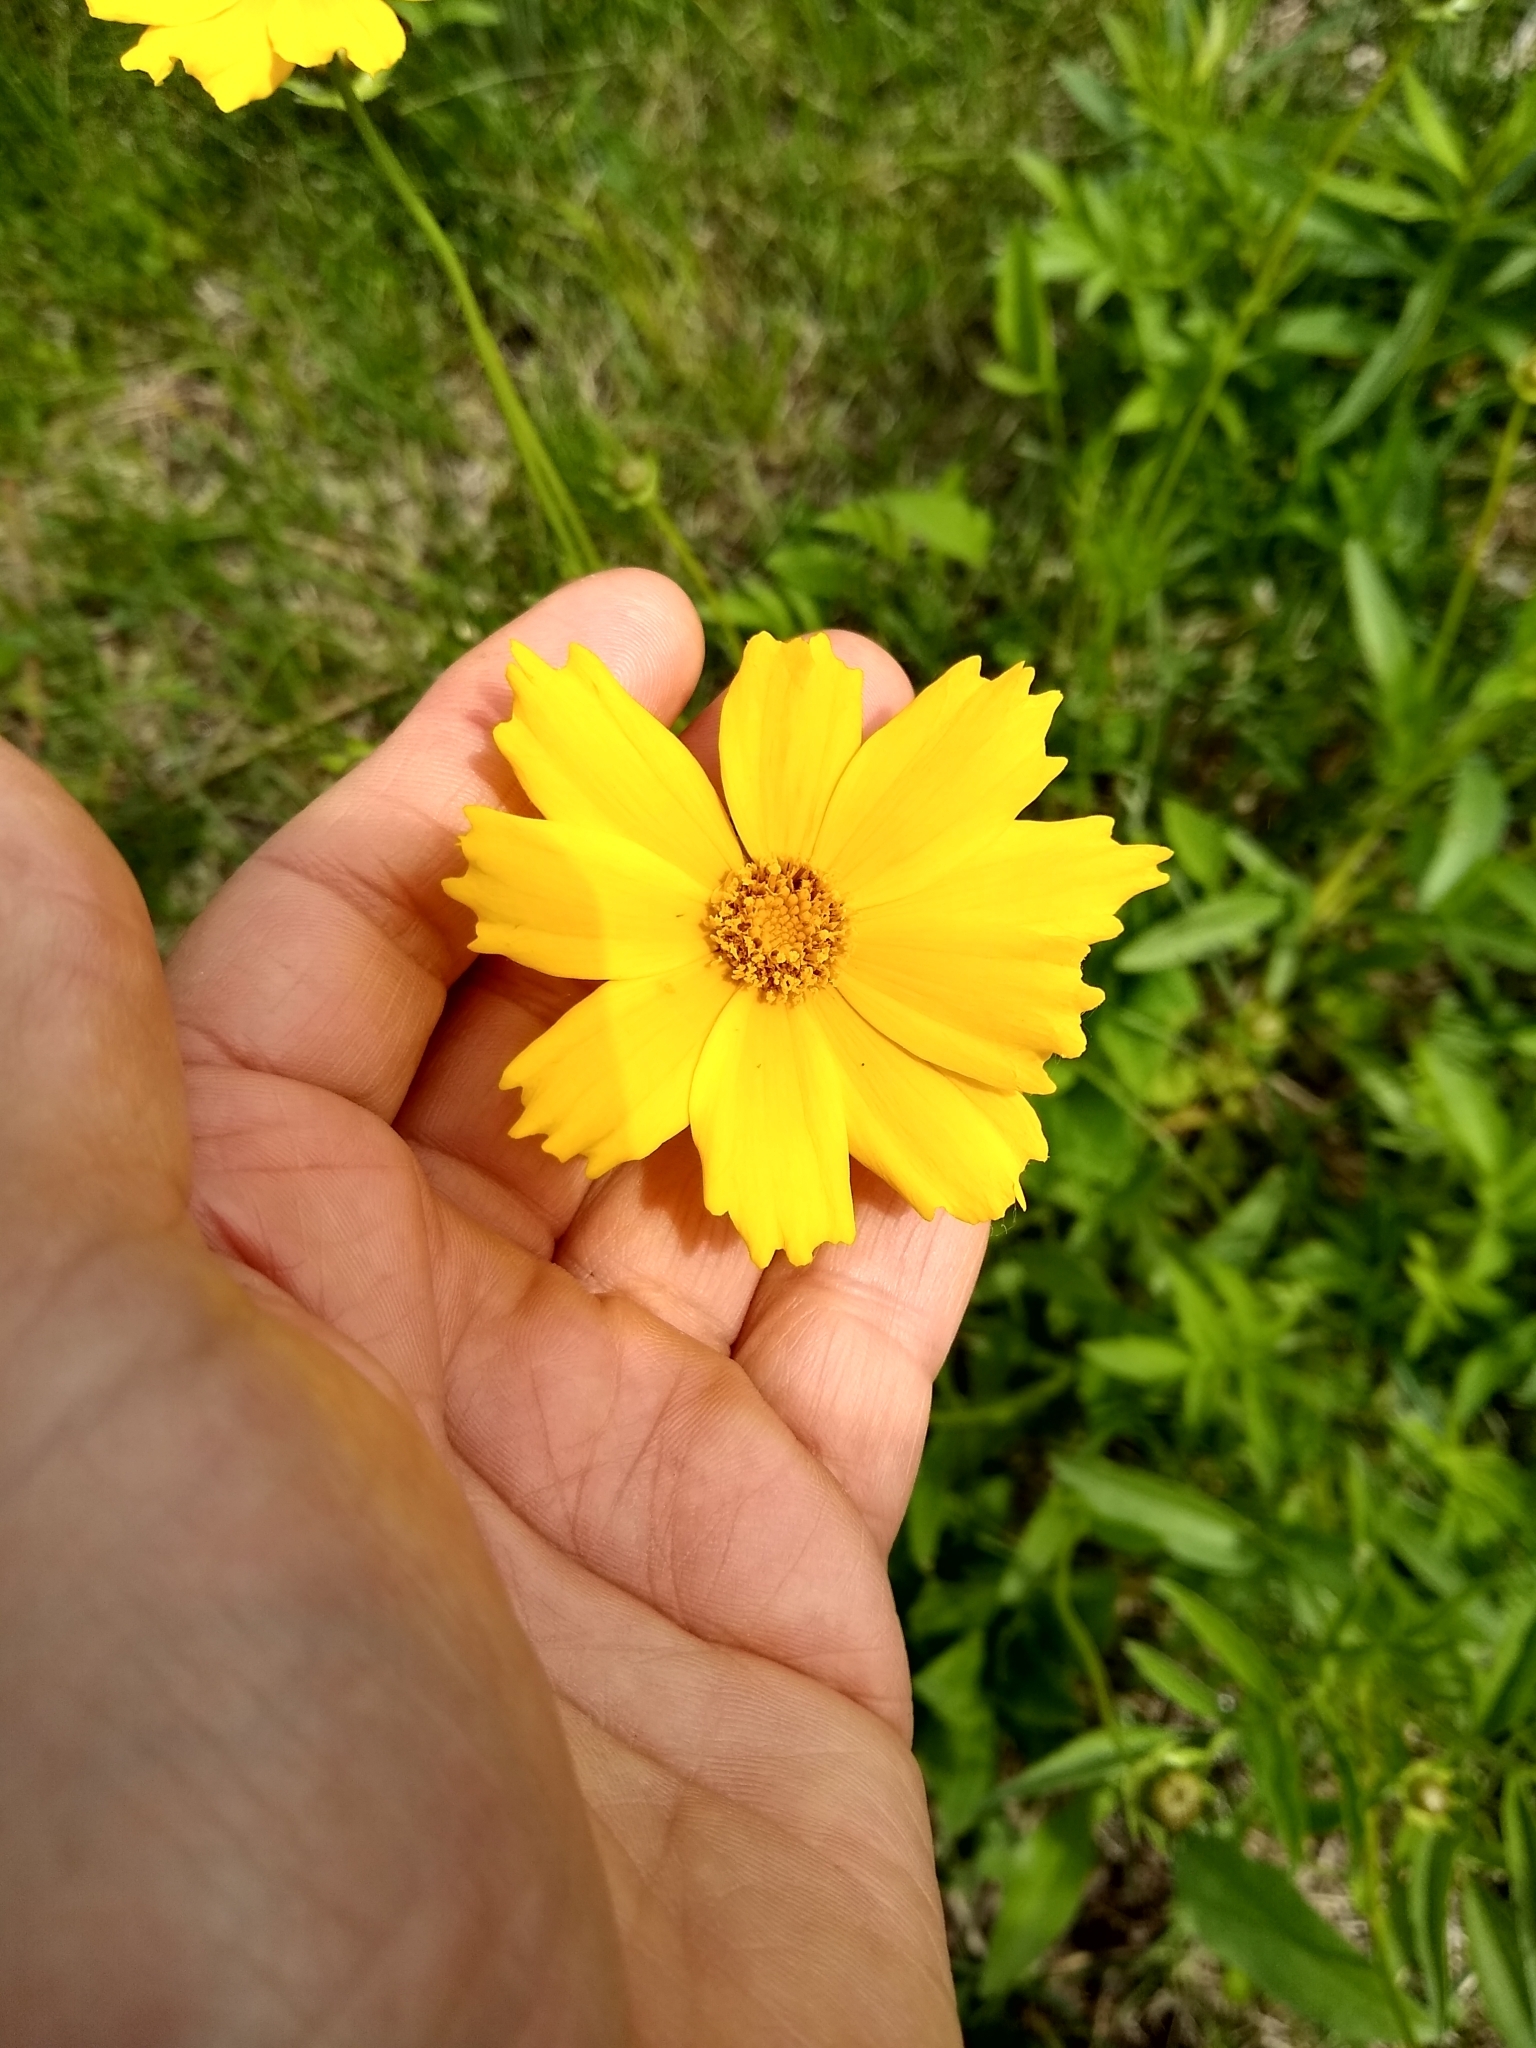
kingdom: Plantae
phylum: Tracheophyta
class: Magnoliopsida
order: Asterales
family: Asteraceae
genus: Coreopsis
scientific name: Coreopsis lanceolata
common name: Garden coreopsis
